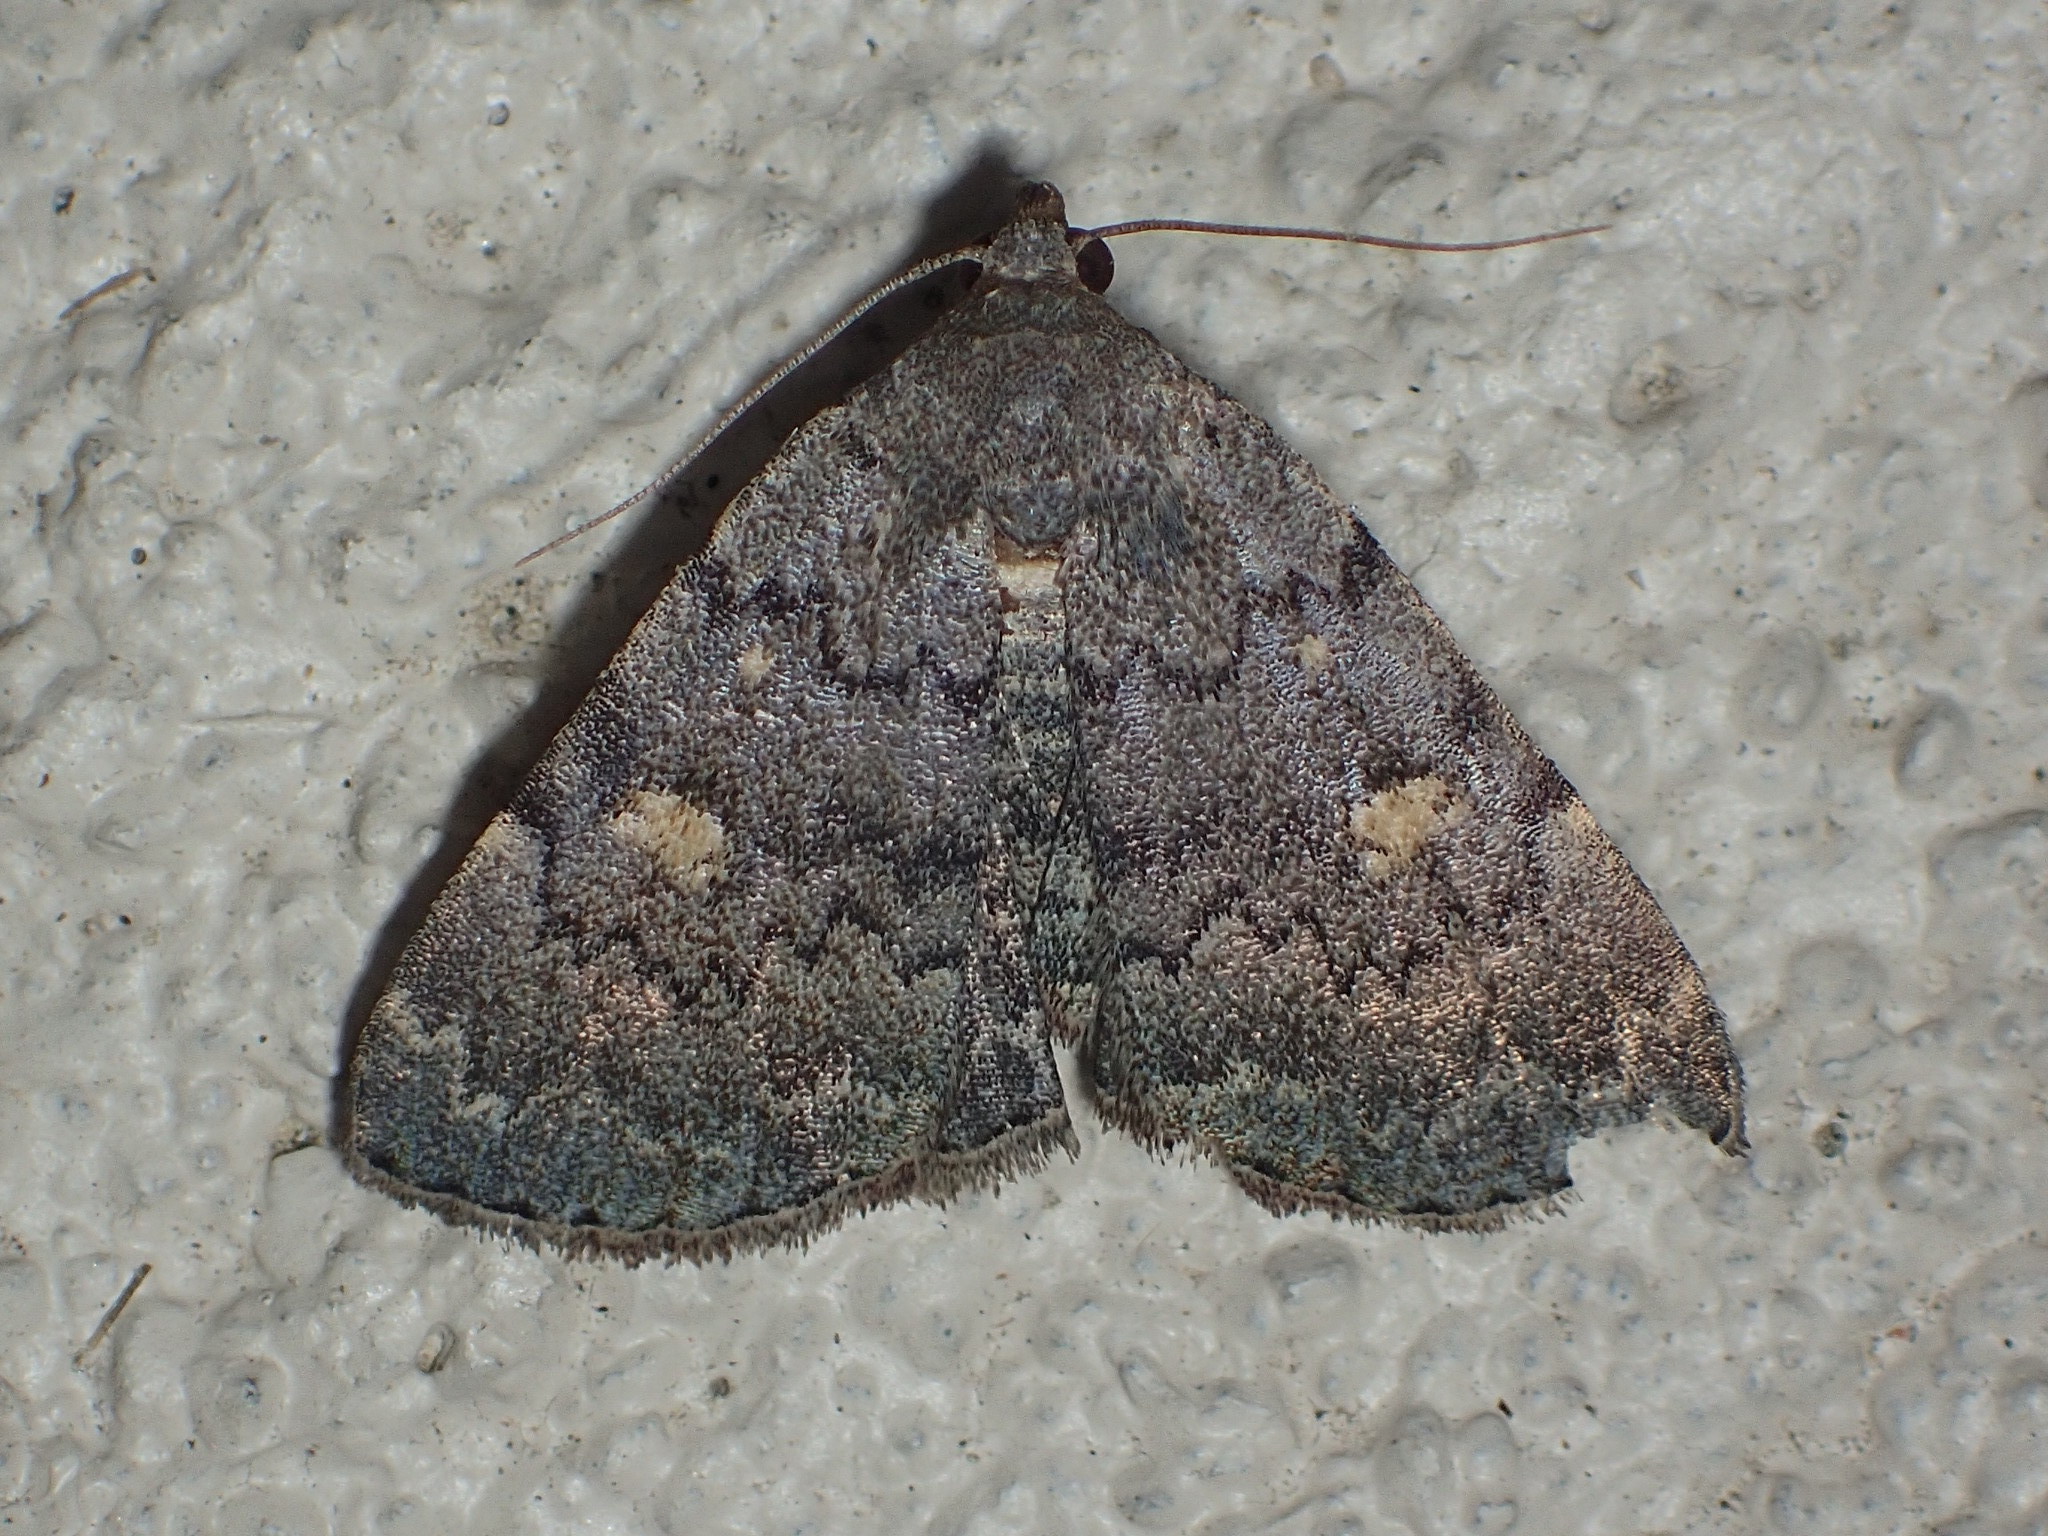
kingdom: Animalia
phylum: Arthropoda
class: Insecta
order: Lepidoptera
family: Erebidae
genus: Idia
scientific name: Idia aemula
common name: Common idia moth
